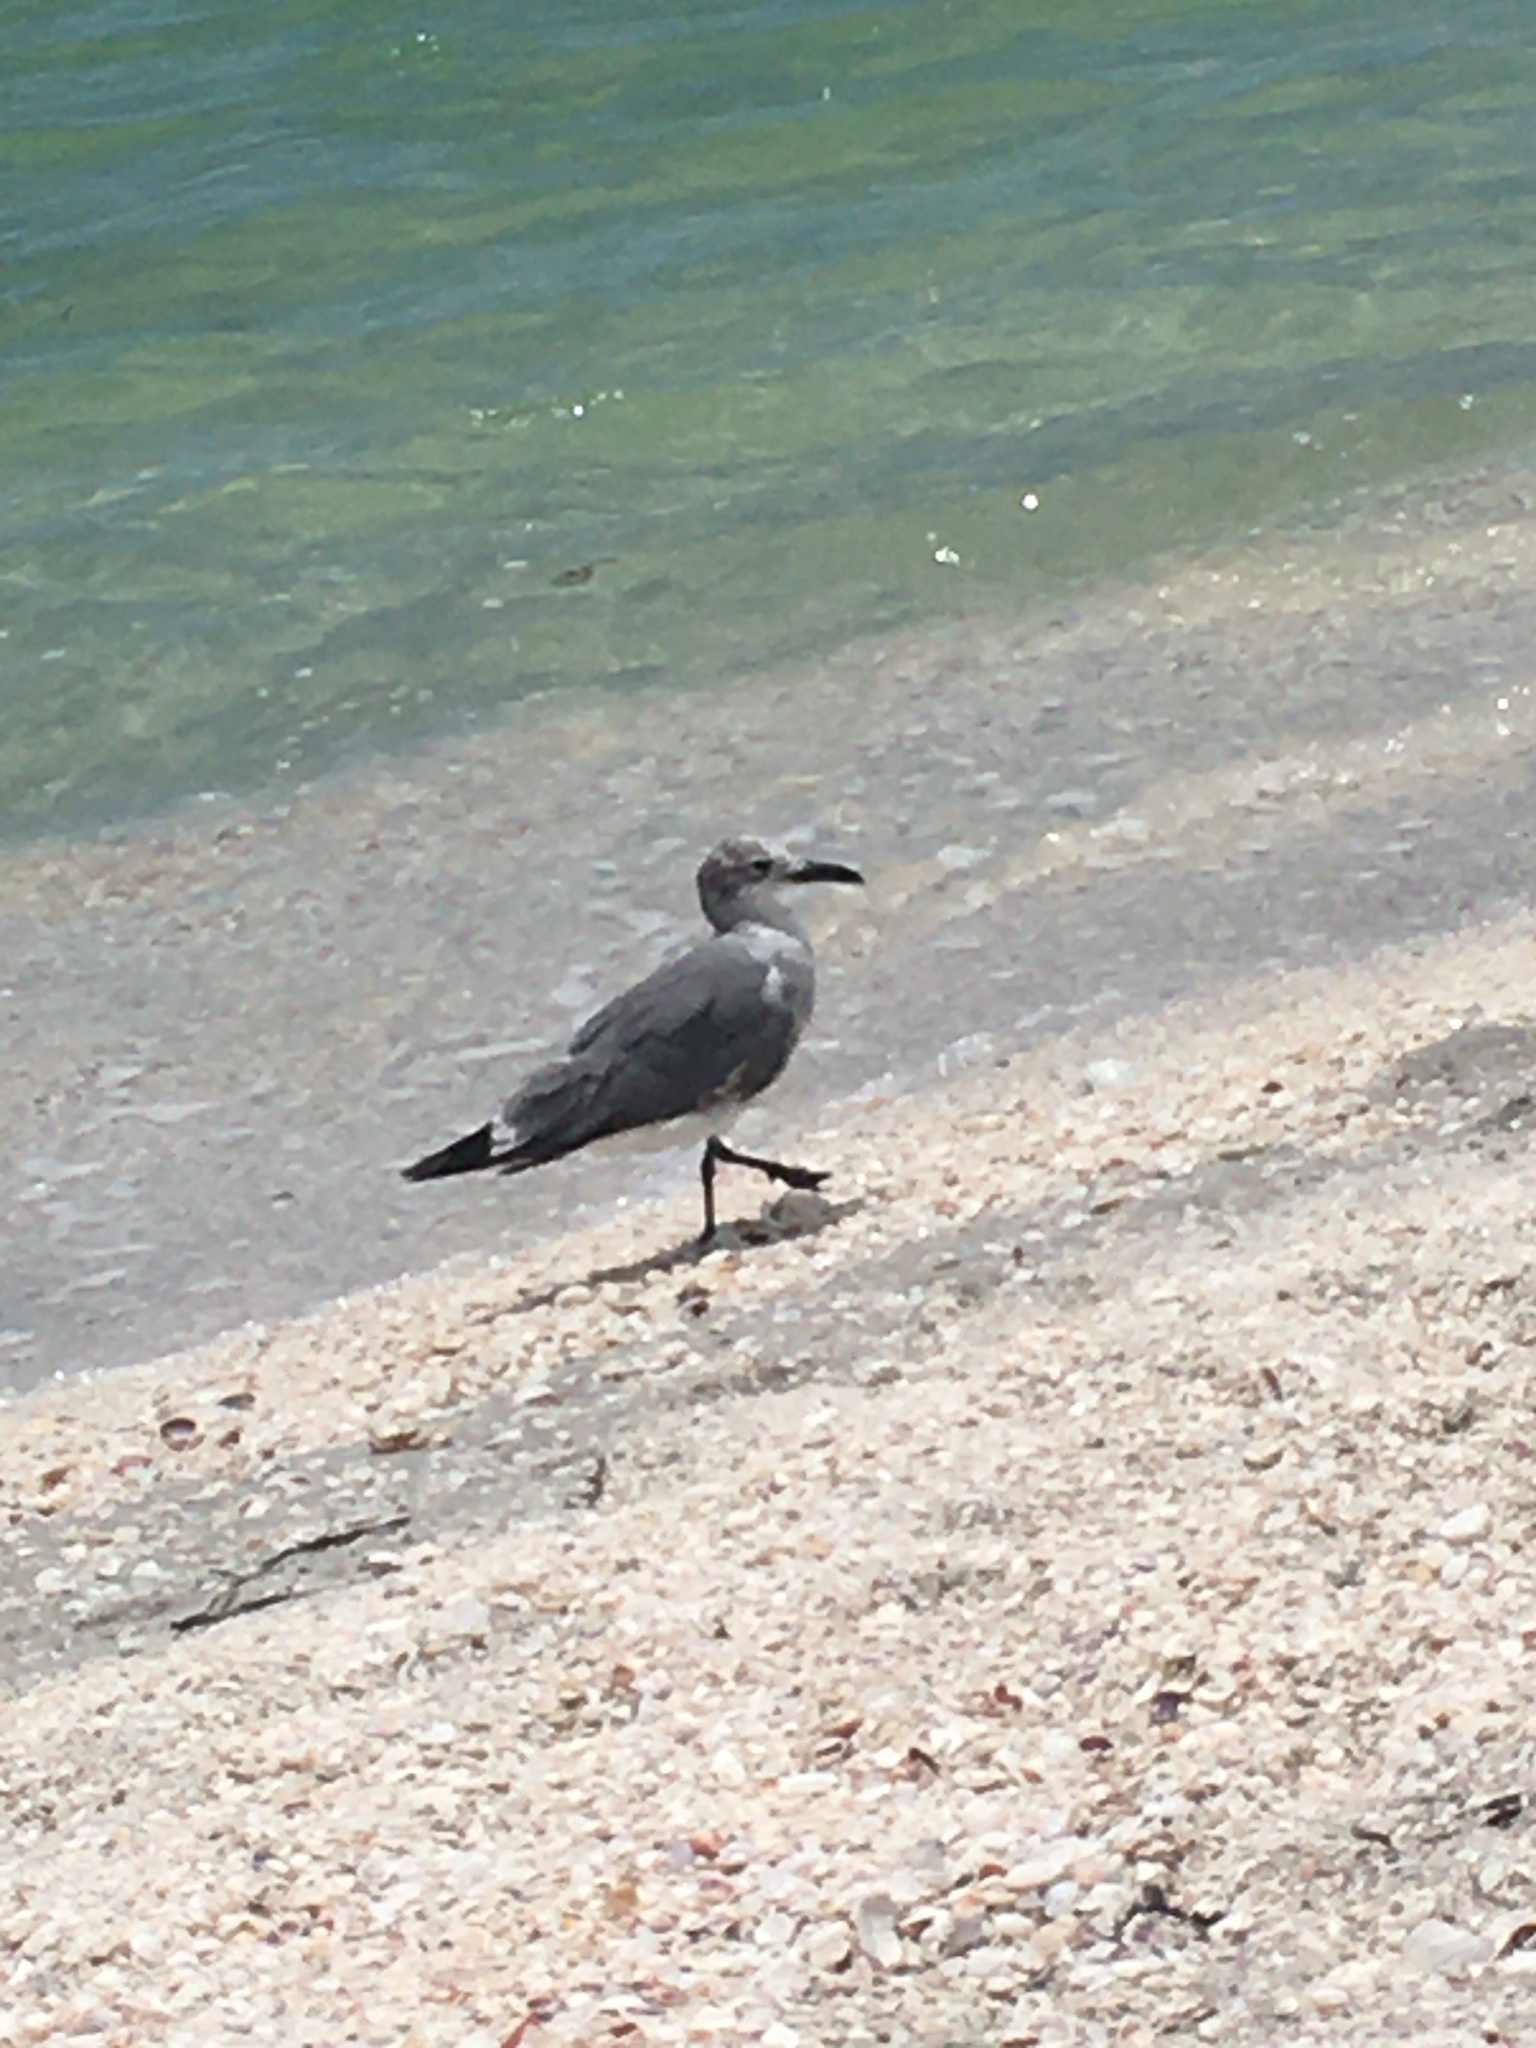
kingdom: Animalia
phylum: Chordata
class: Aves
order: Charadriiformes
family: Laridae
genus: Leucophaeus
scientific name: Leucophaeus atricilla
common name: Laughing gull
